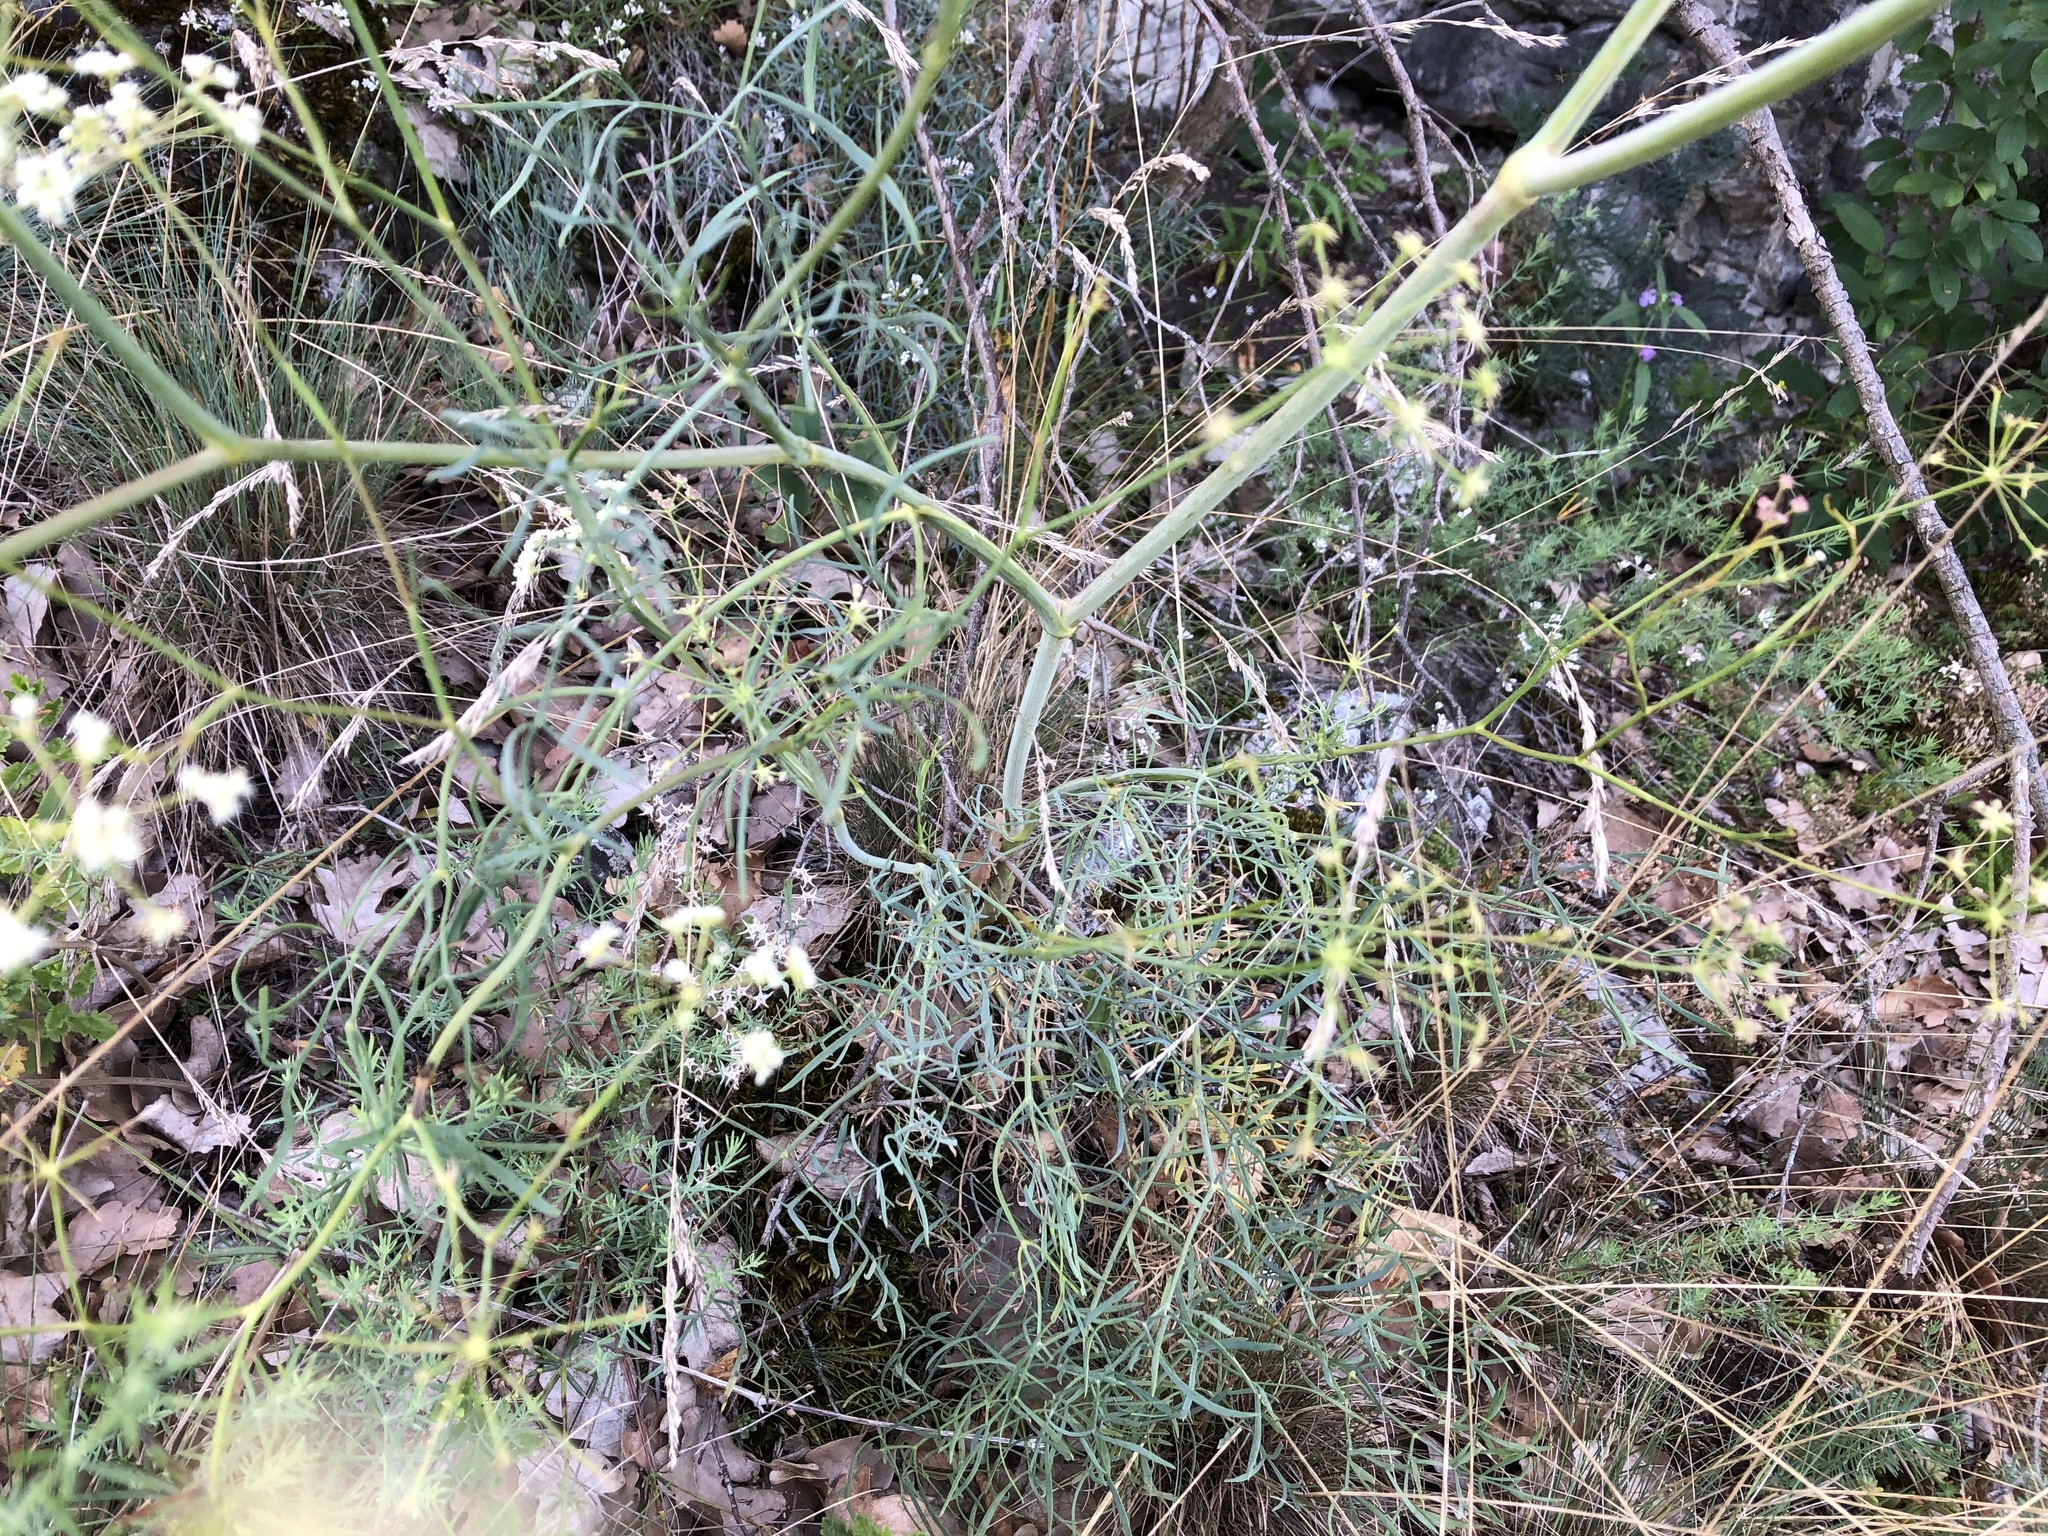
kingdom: Plantae
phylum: Tracheophyta
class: Magnoliopsida
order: Apiales
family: Apiaceae
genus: Seseli
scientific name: Seseli osseum
